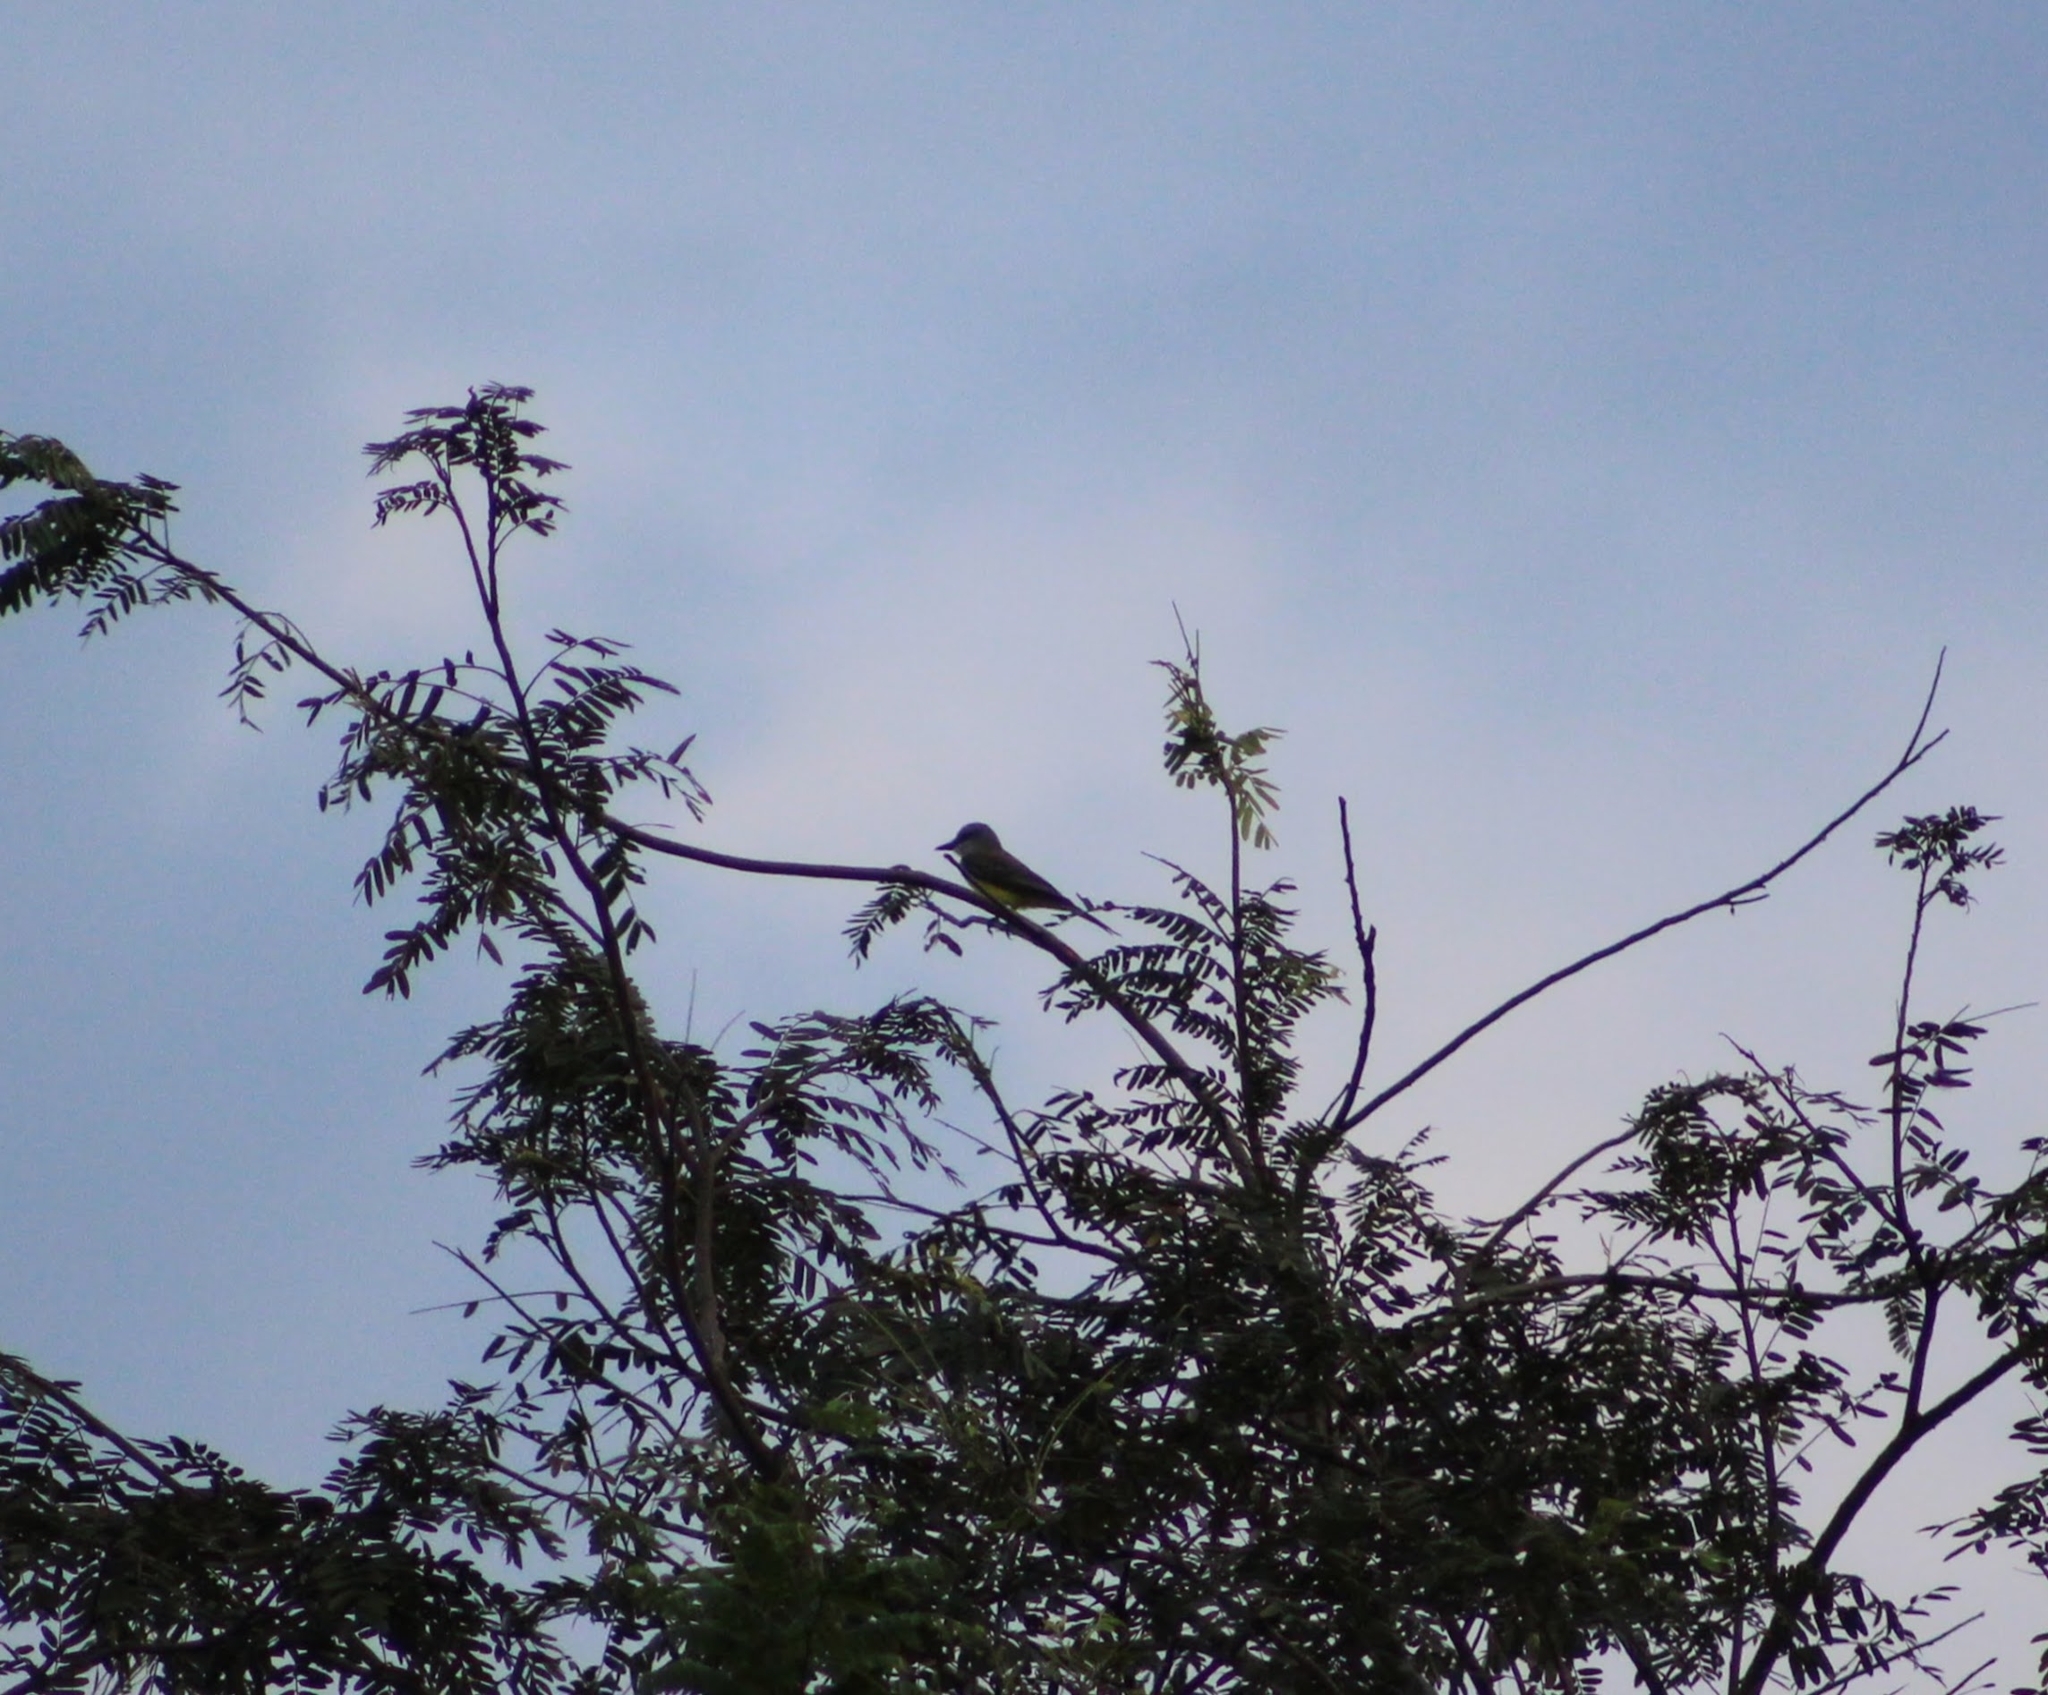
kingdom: Animalia
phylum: Chordata
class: Aves
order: Passeriformes
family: Tyrannidae
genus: Tyrannus
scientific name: Tyrannus melancholicus
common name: Tropical kingbird
